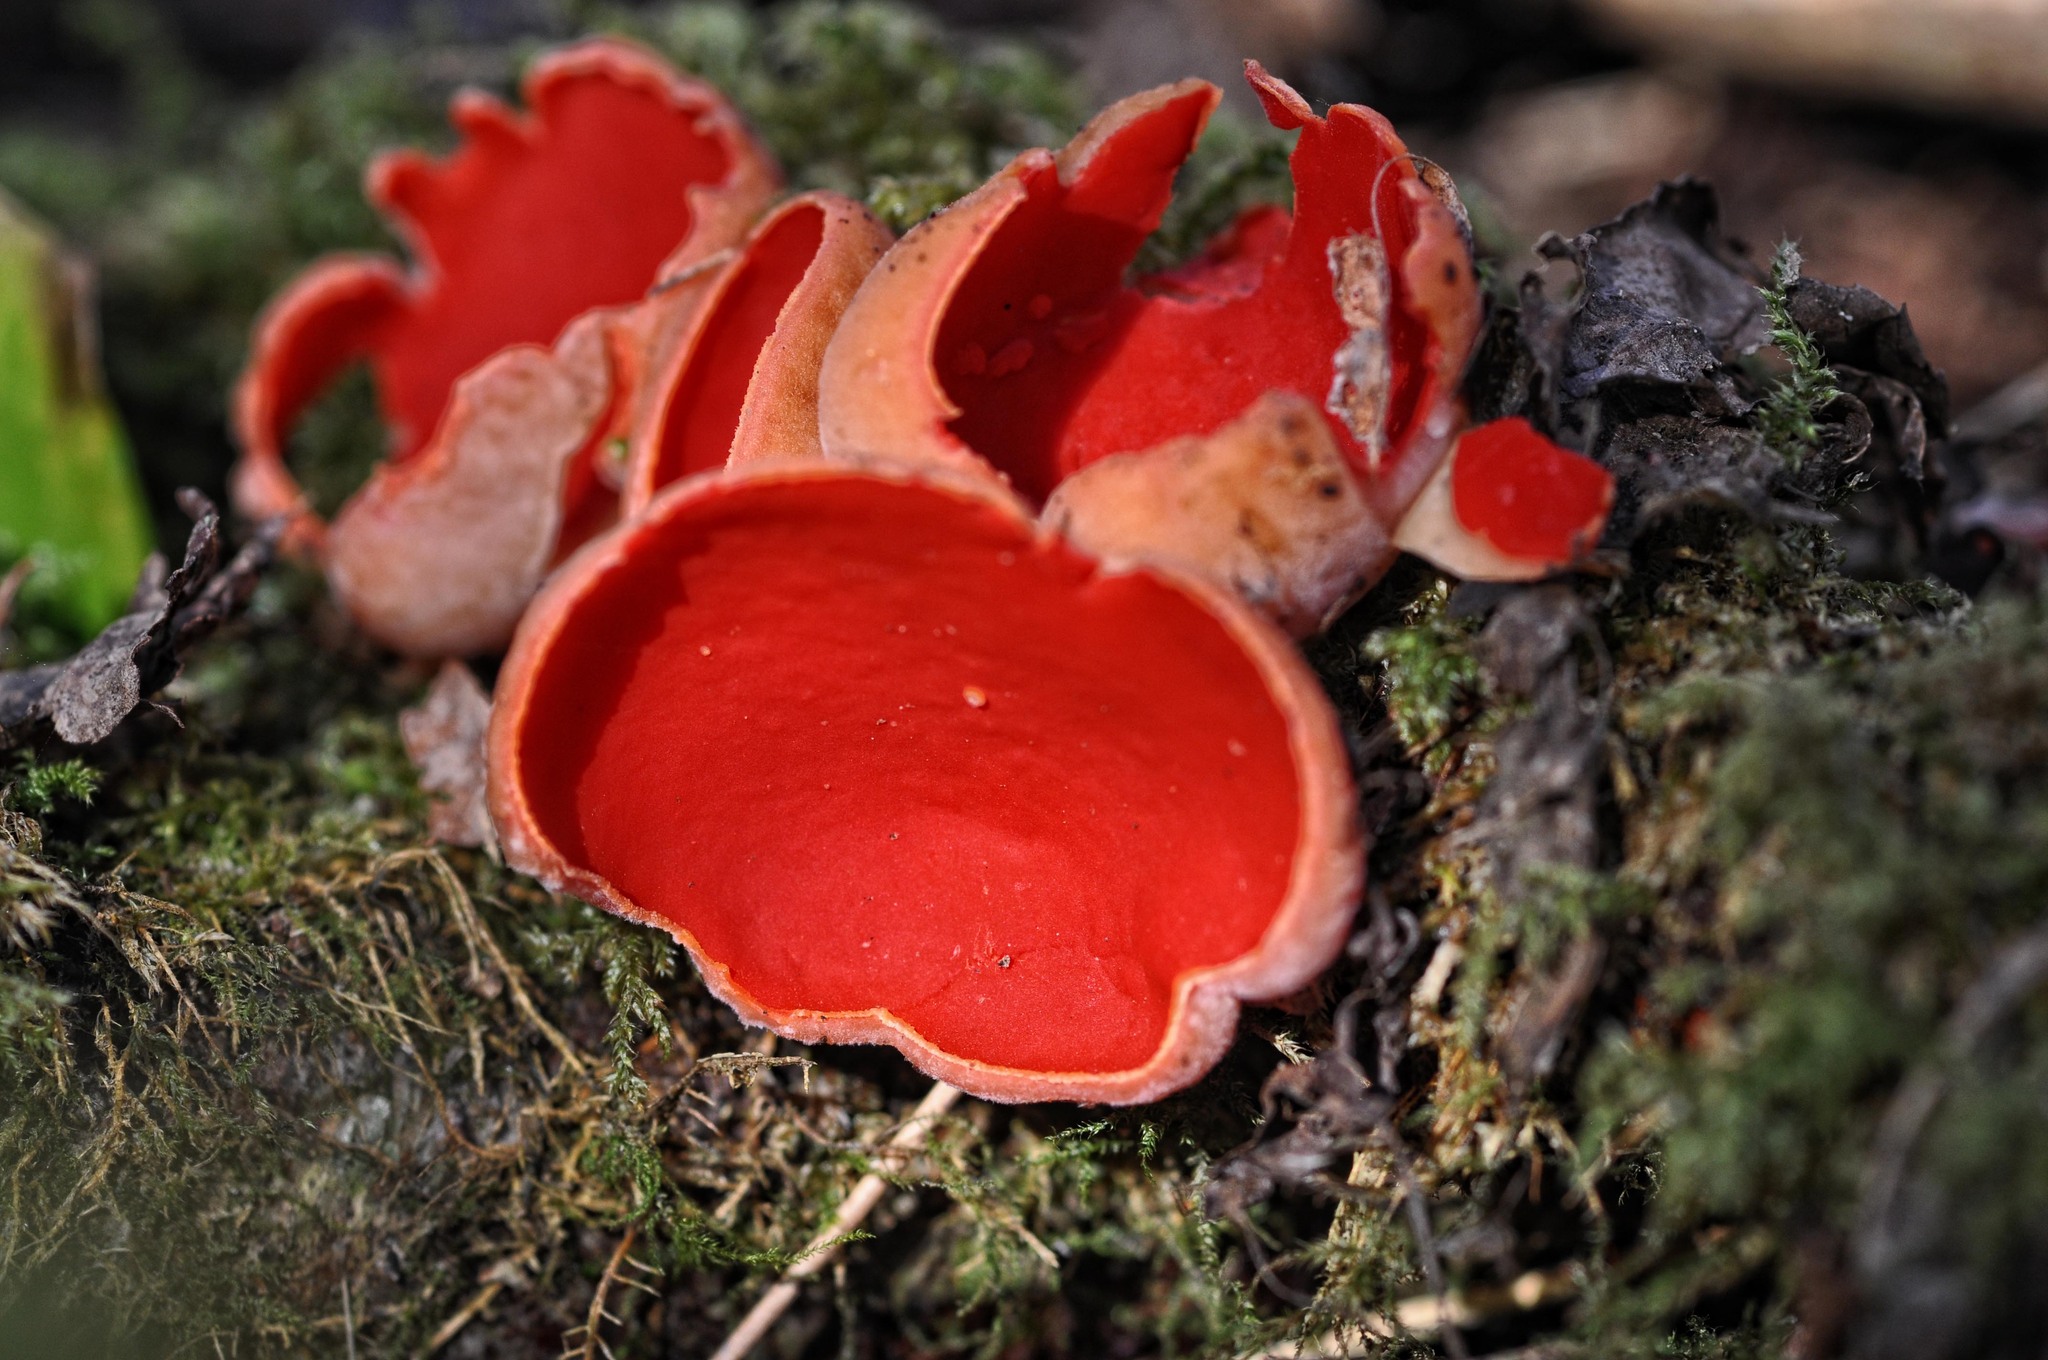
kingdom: Fungi
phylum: Ascomycota
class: Pezizomycetes
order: Pezizales
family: Sarcoscyphaceae
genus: Sarcoscypha
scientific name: Sarcoscypha
